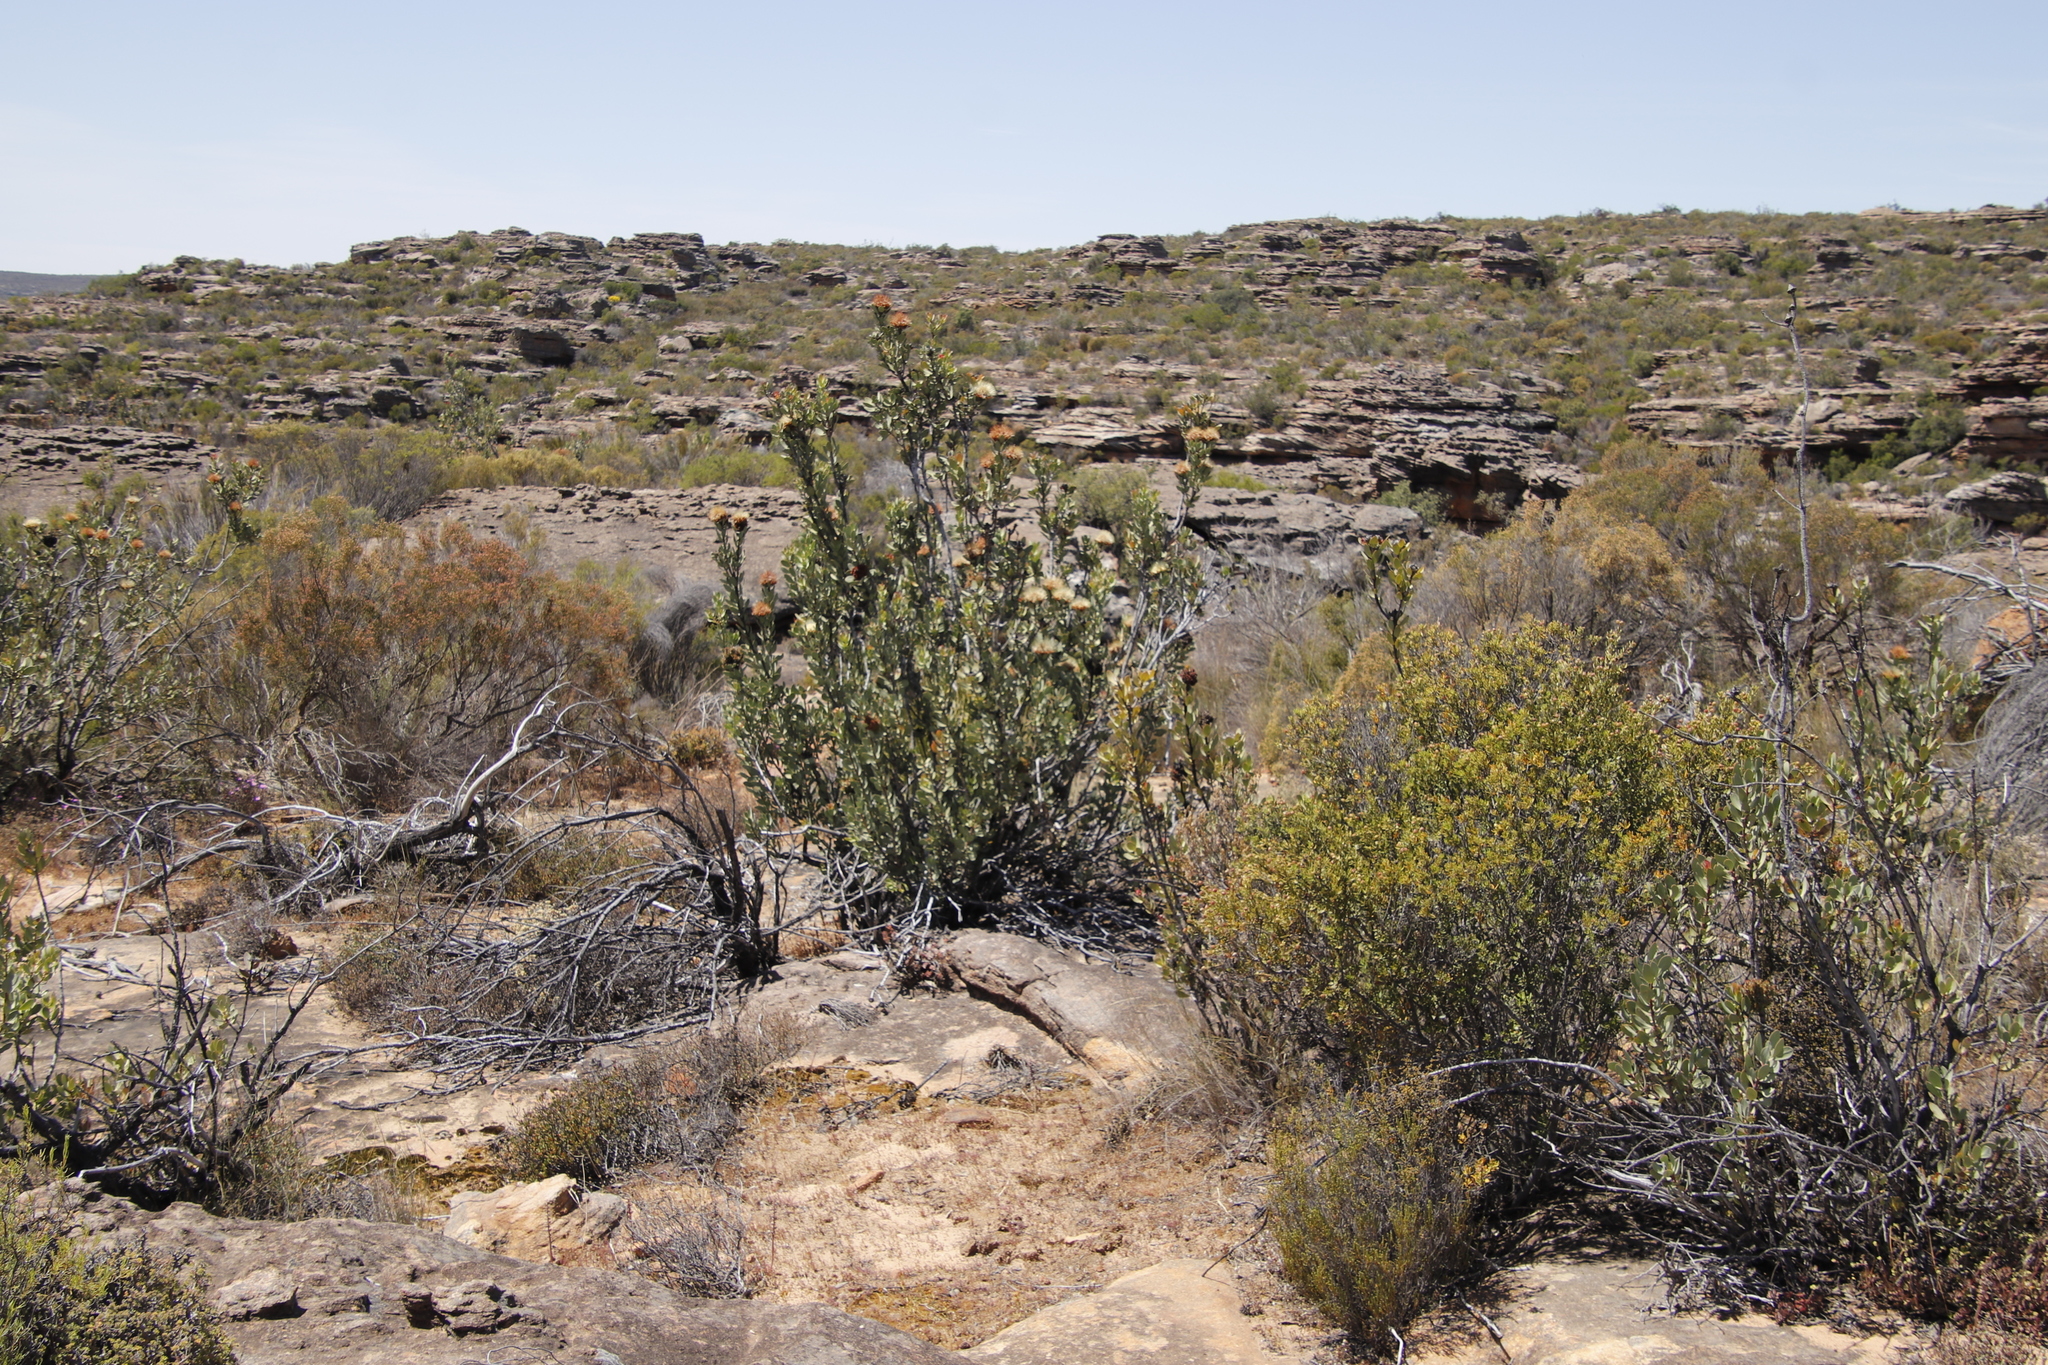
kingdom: Plantae
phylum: Tracheophyta
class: Magnoliopsida
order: Proteales
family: Proteaceae
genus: Protea
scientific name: Protea glabra
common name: Chestnut sugarbush
